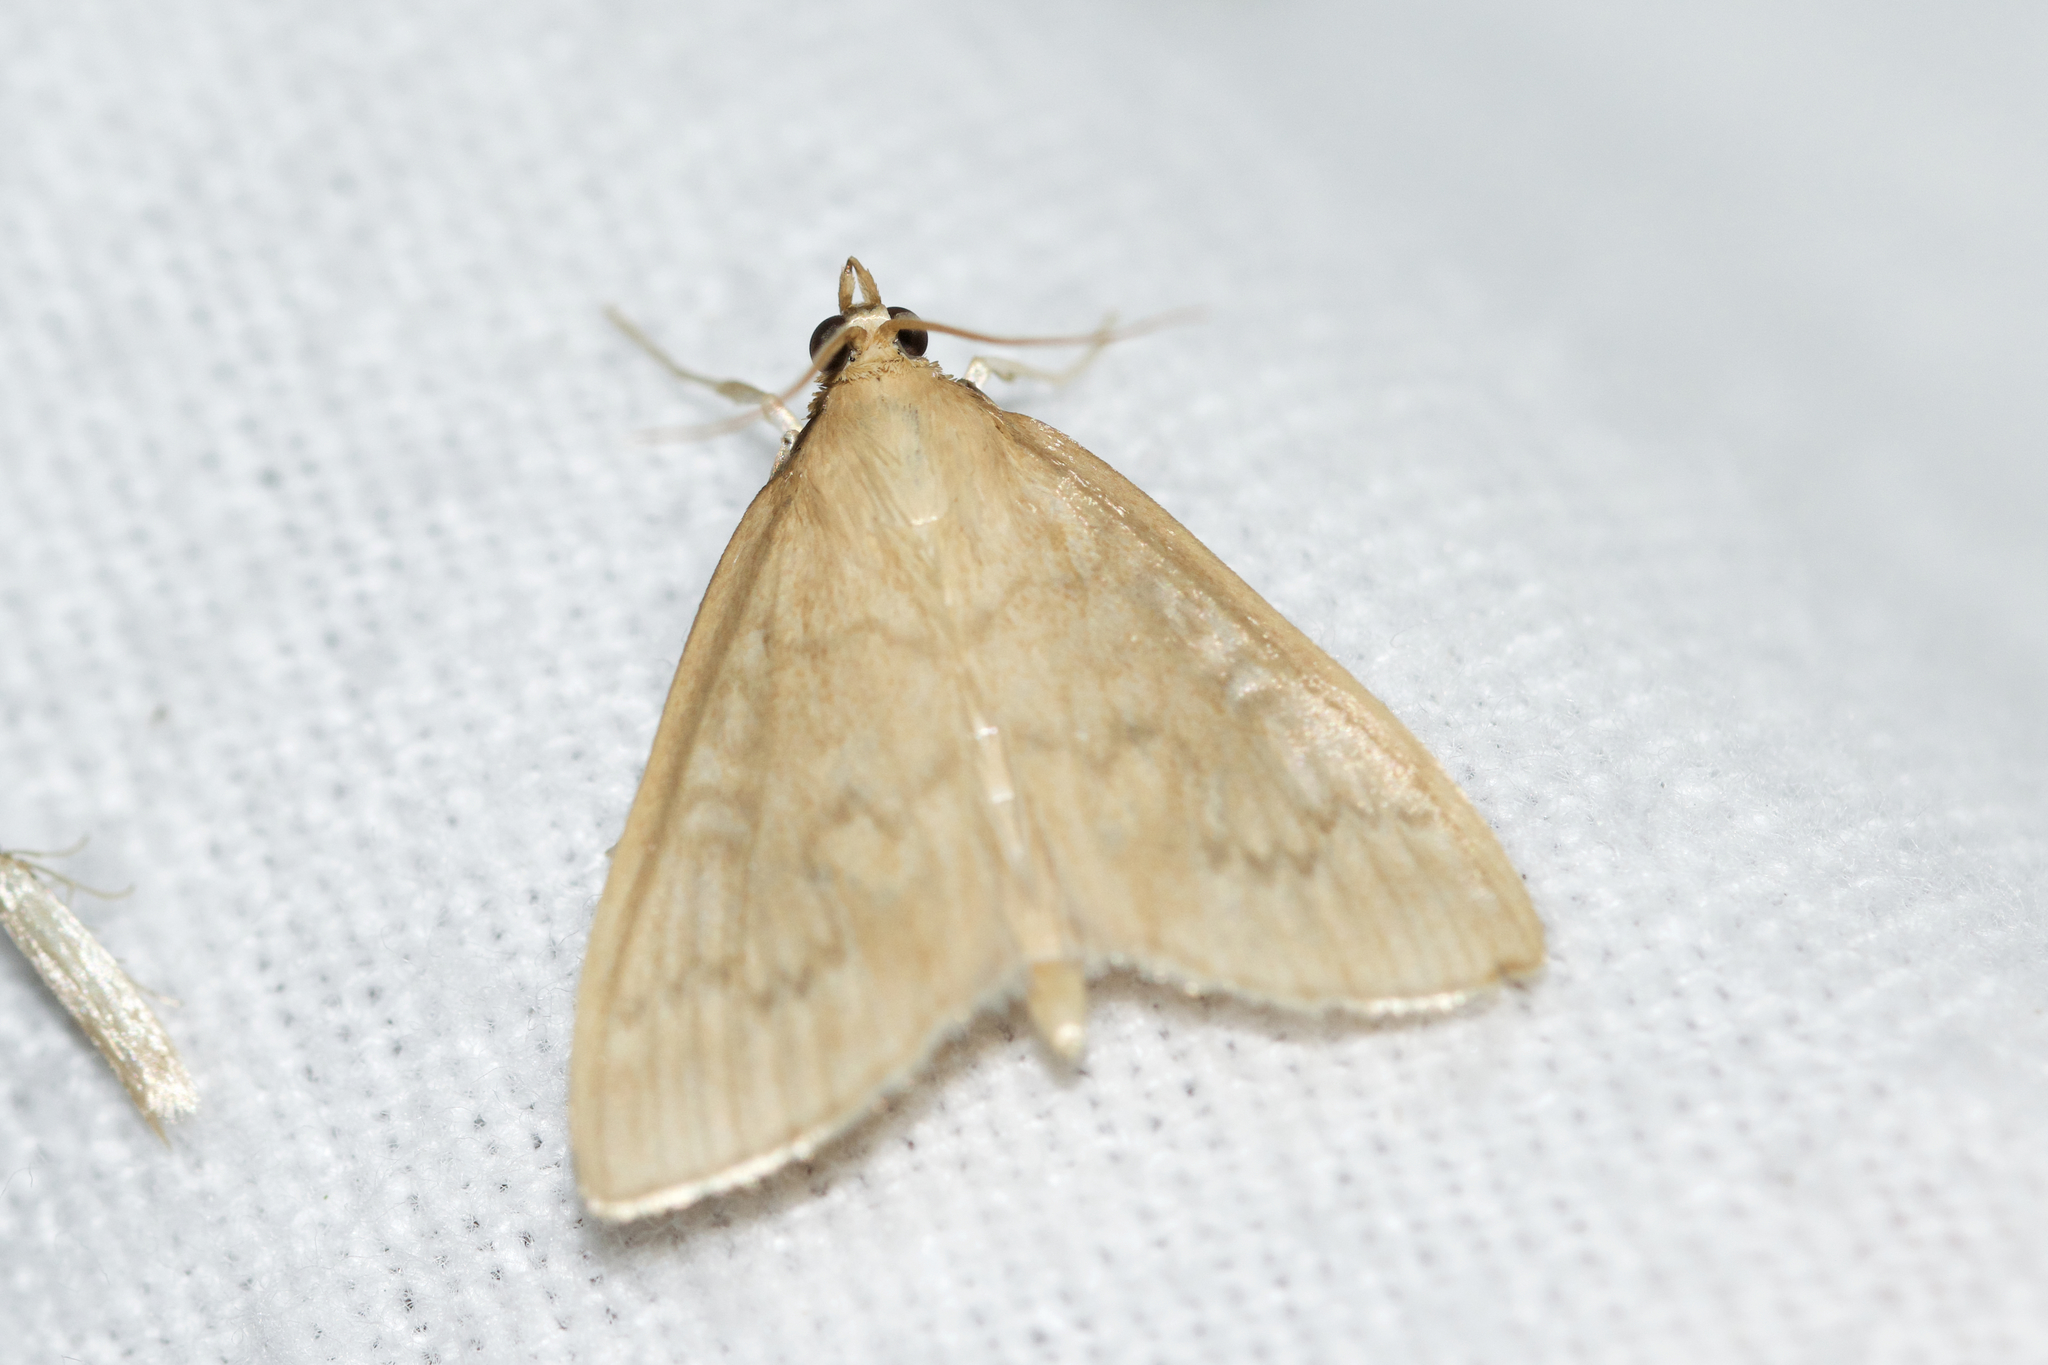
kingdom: Animalia
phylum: Arthropoda
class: Insecta
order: Lepidoptera
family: Crambidae
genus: Anania
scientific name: Anania Framinghamia helvalis
